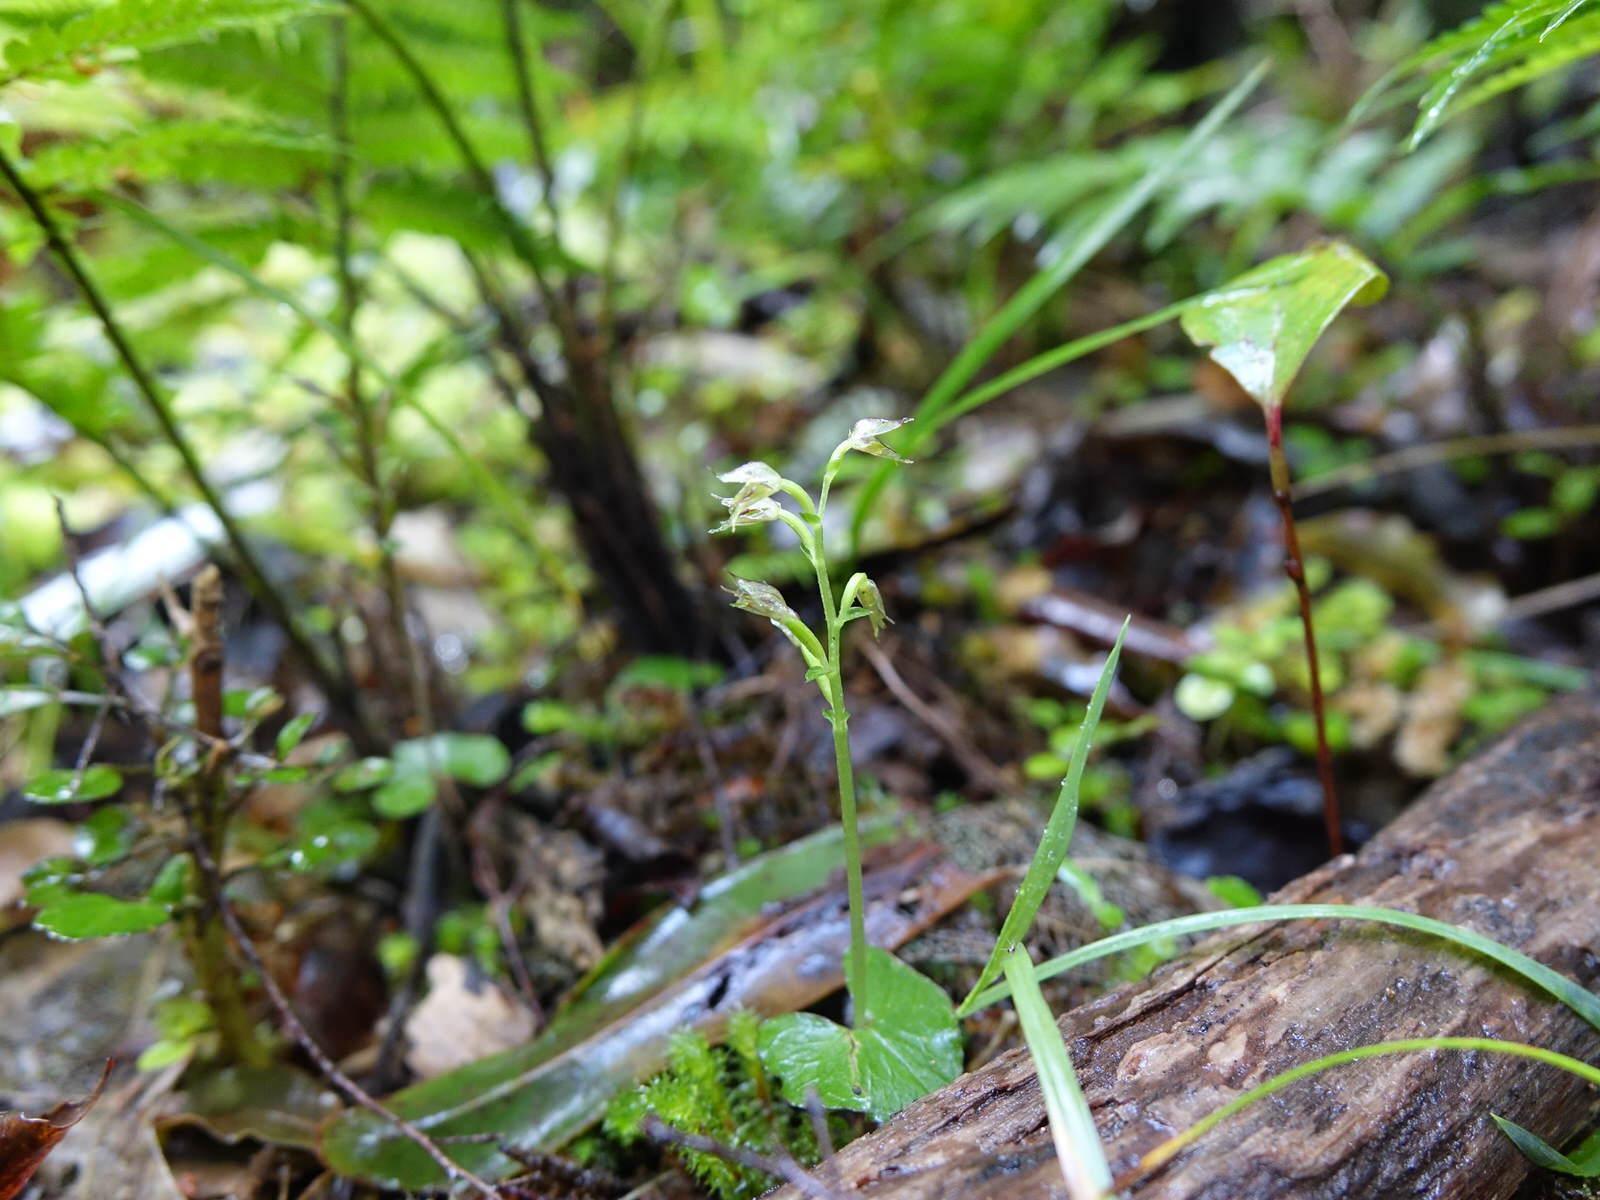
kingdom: Plantae
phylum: Tracheophyta
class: Liliopsida
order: Asparagales
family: Orchidaceae
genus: Acianthus
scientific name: Acianthus sinclairii
